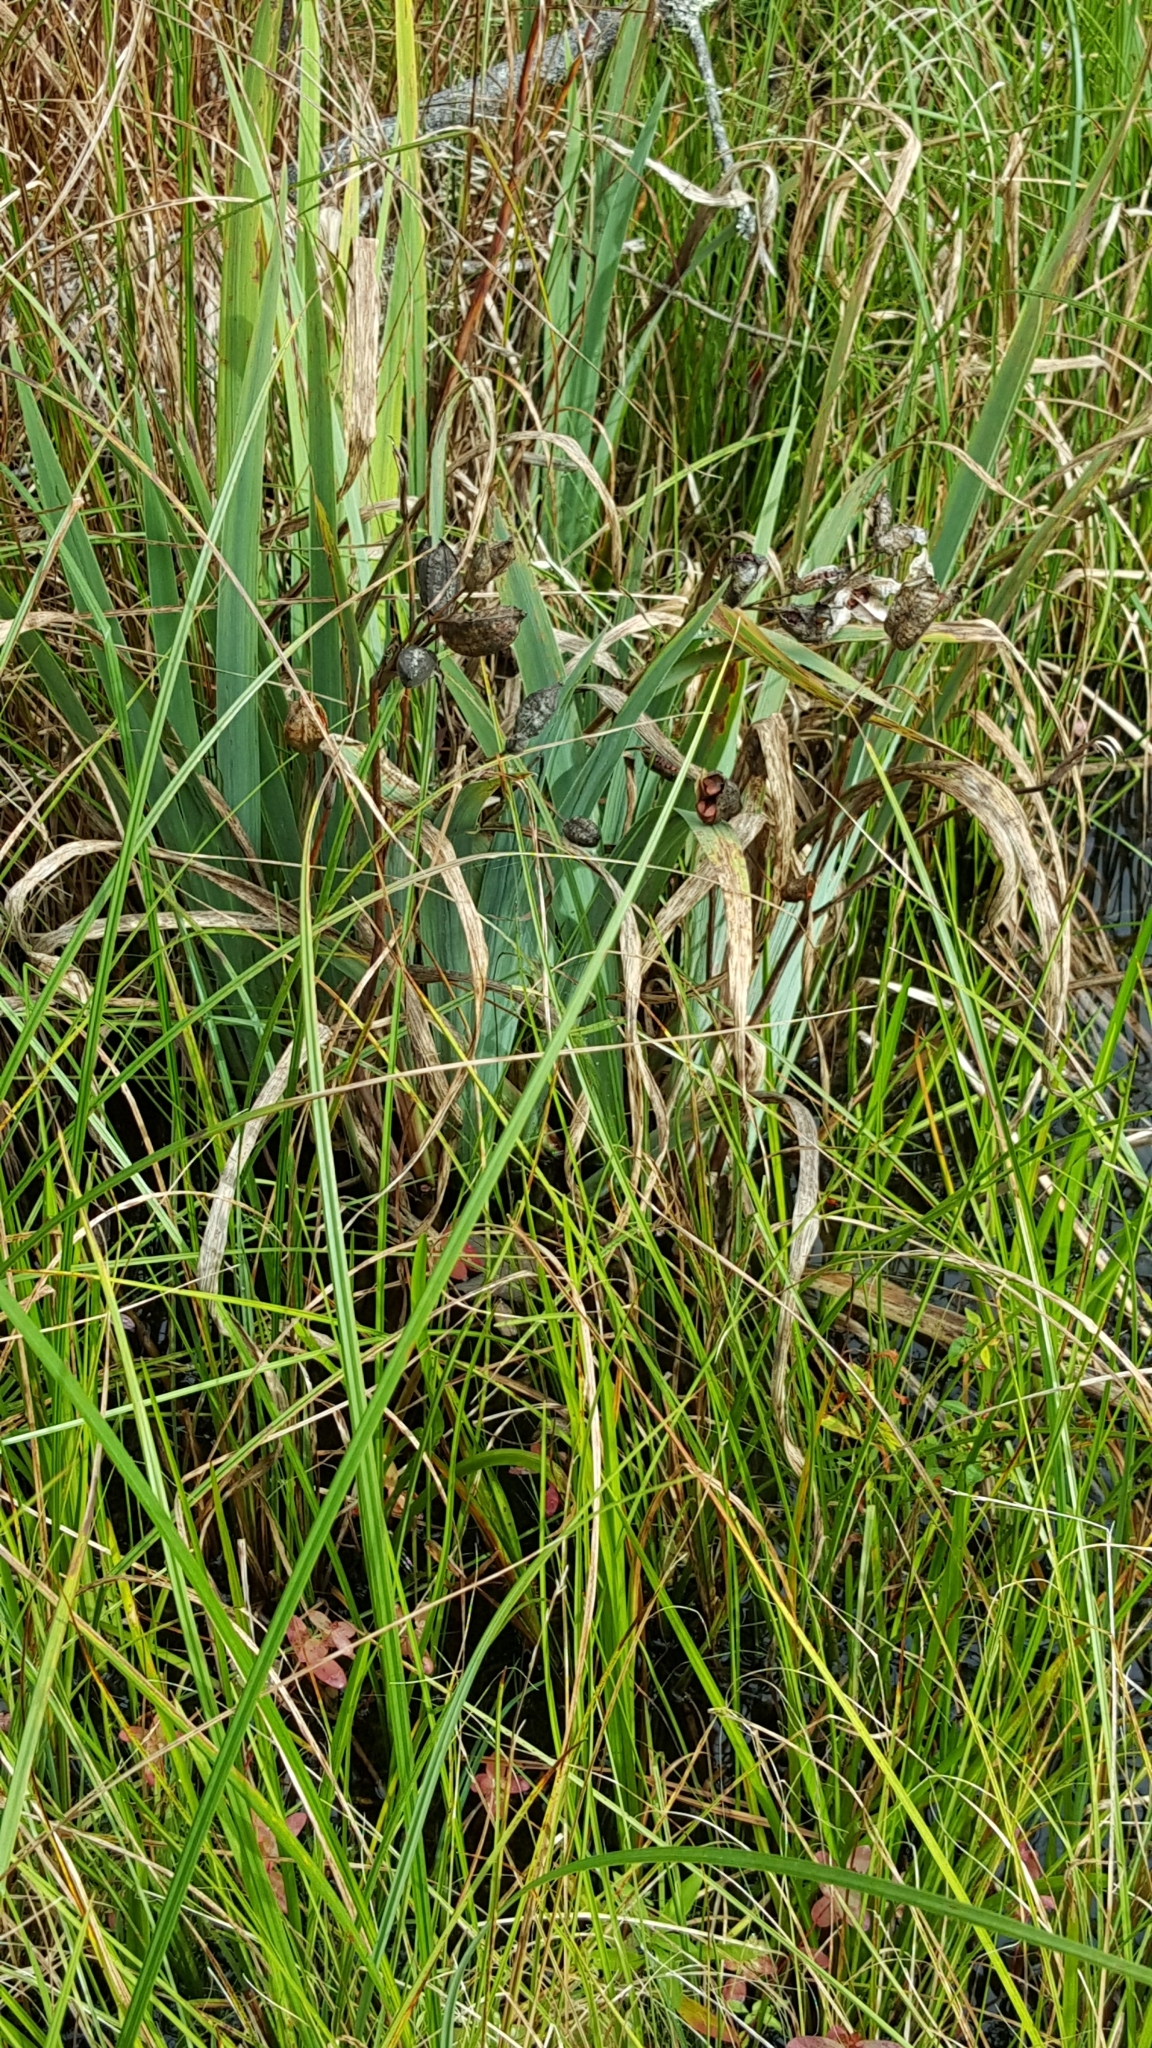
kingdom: Plantae
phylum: Tracheophyta
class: Liliopsida
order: Asparagales
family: Iridaceae
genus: Iris
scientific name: Iris versicolor
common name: Purple iris
